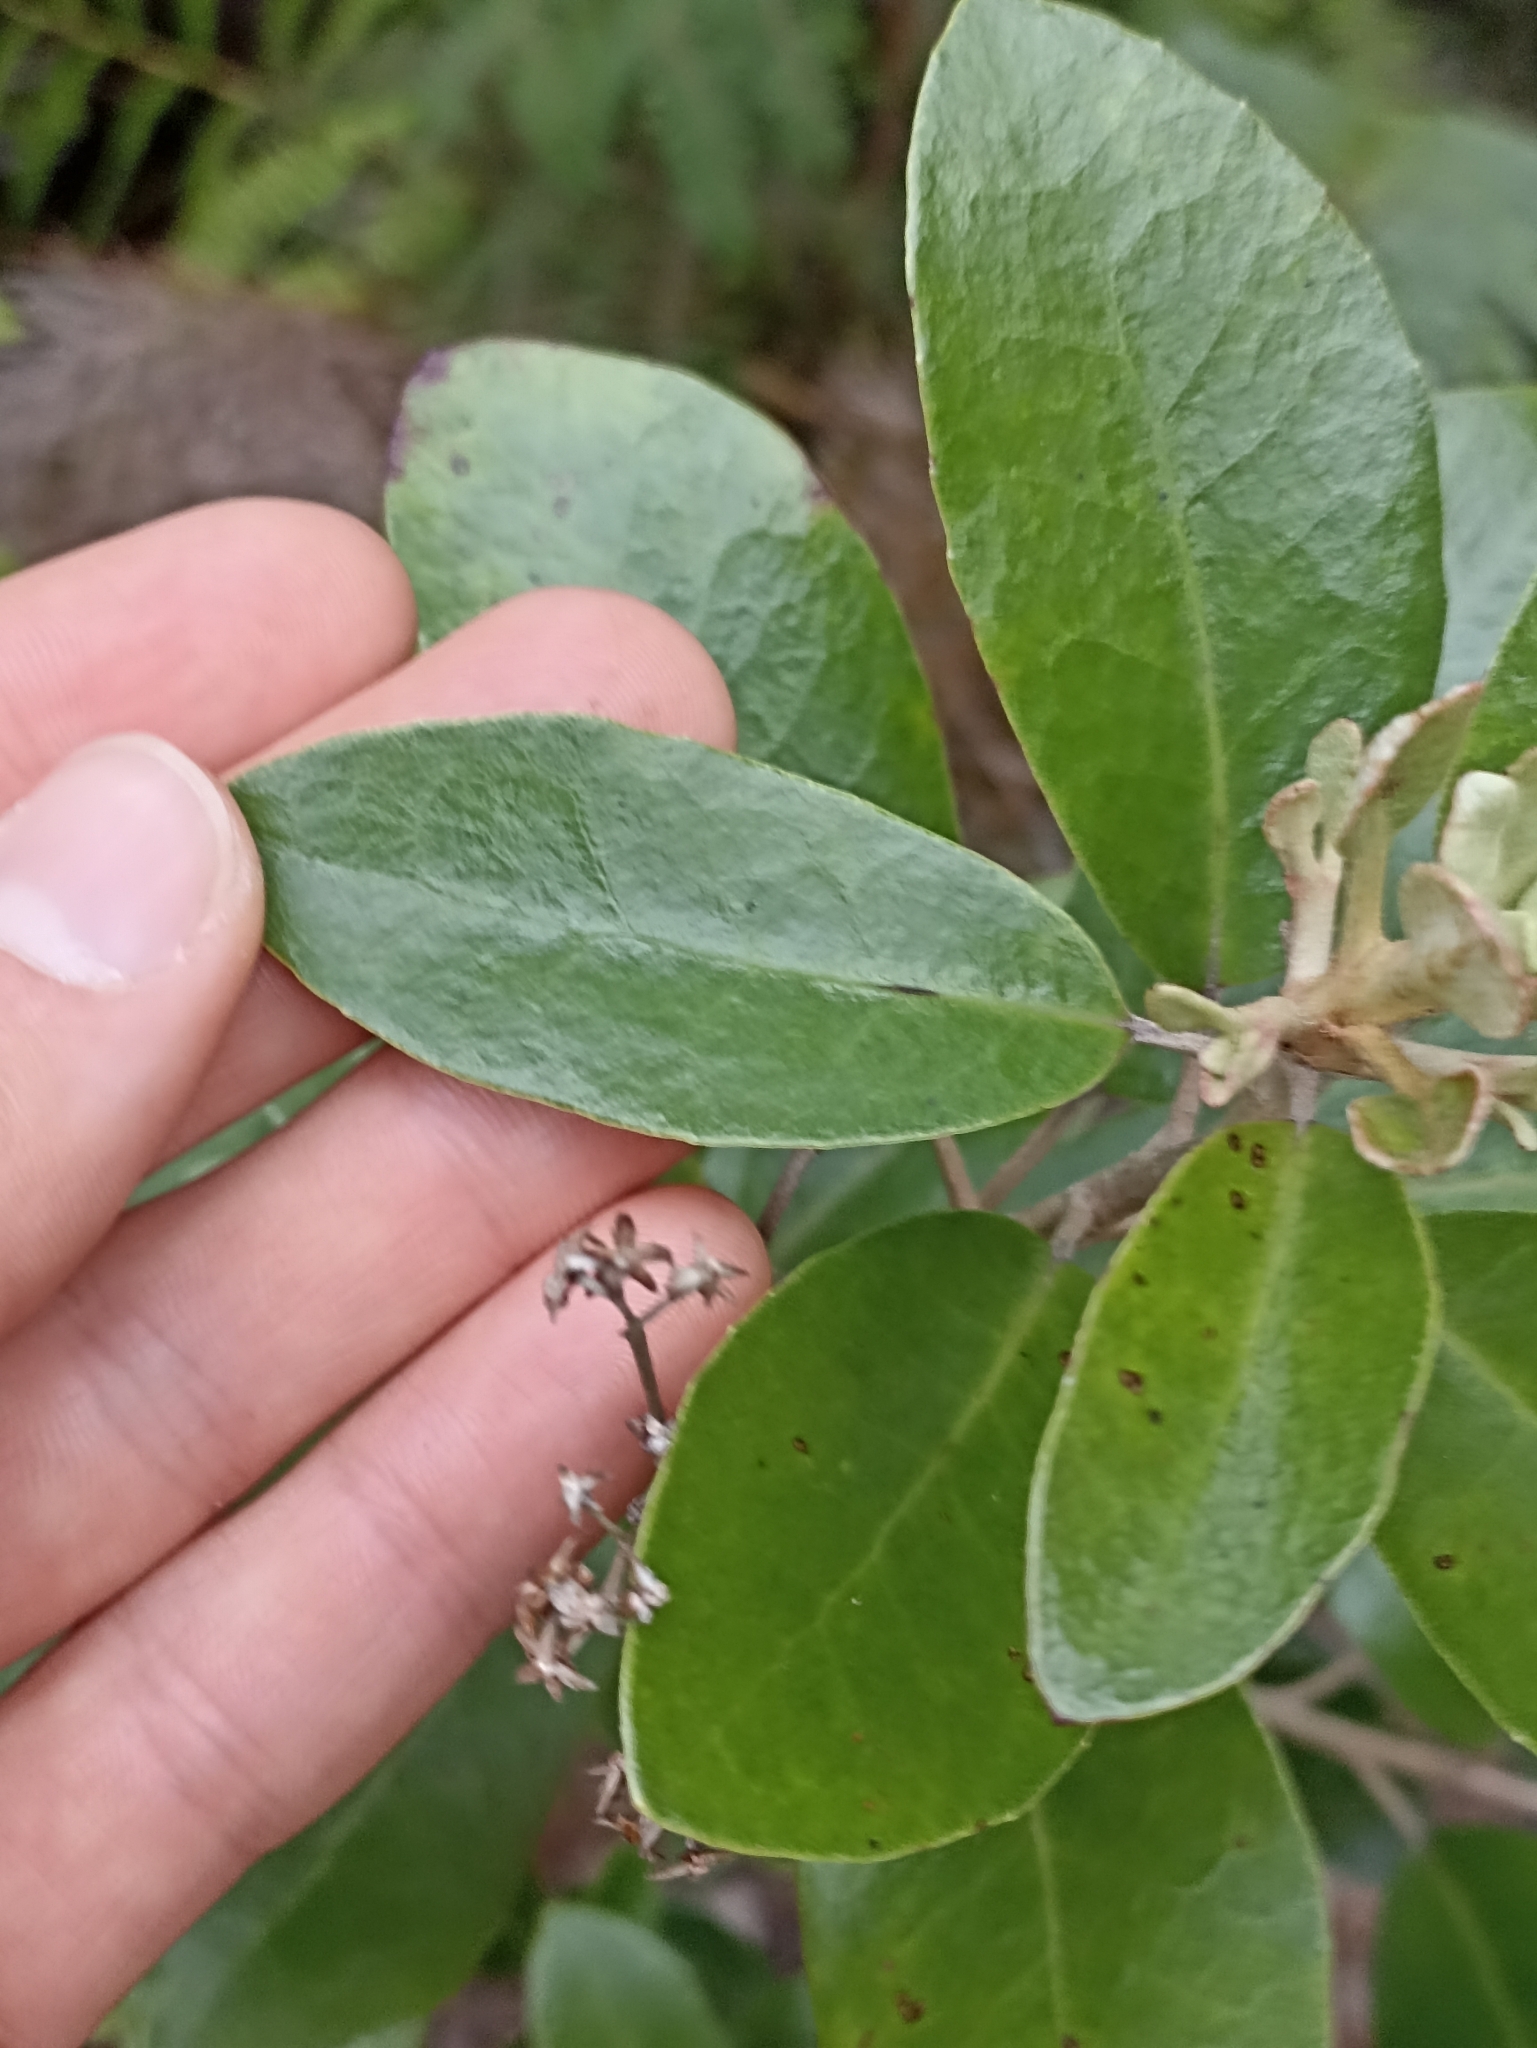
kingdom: Plantae
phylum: Tracheophyta
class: Magnoliopsida
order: Asterales
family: Asteraceae
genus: Olearia
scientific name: Olearia townsonii
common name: Coromandel tree daisy
